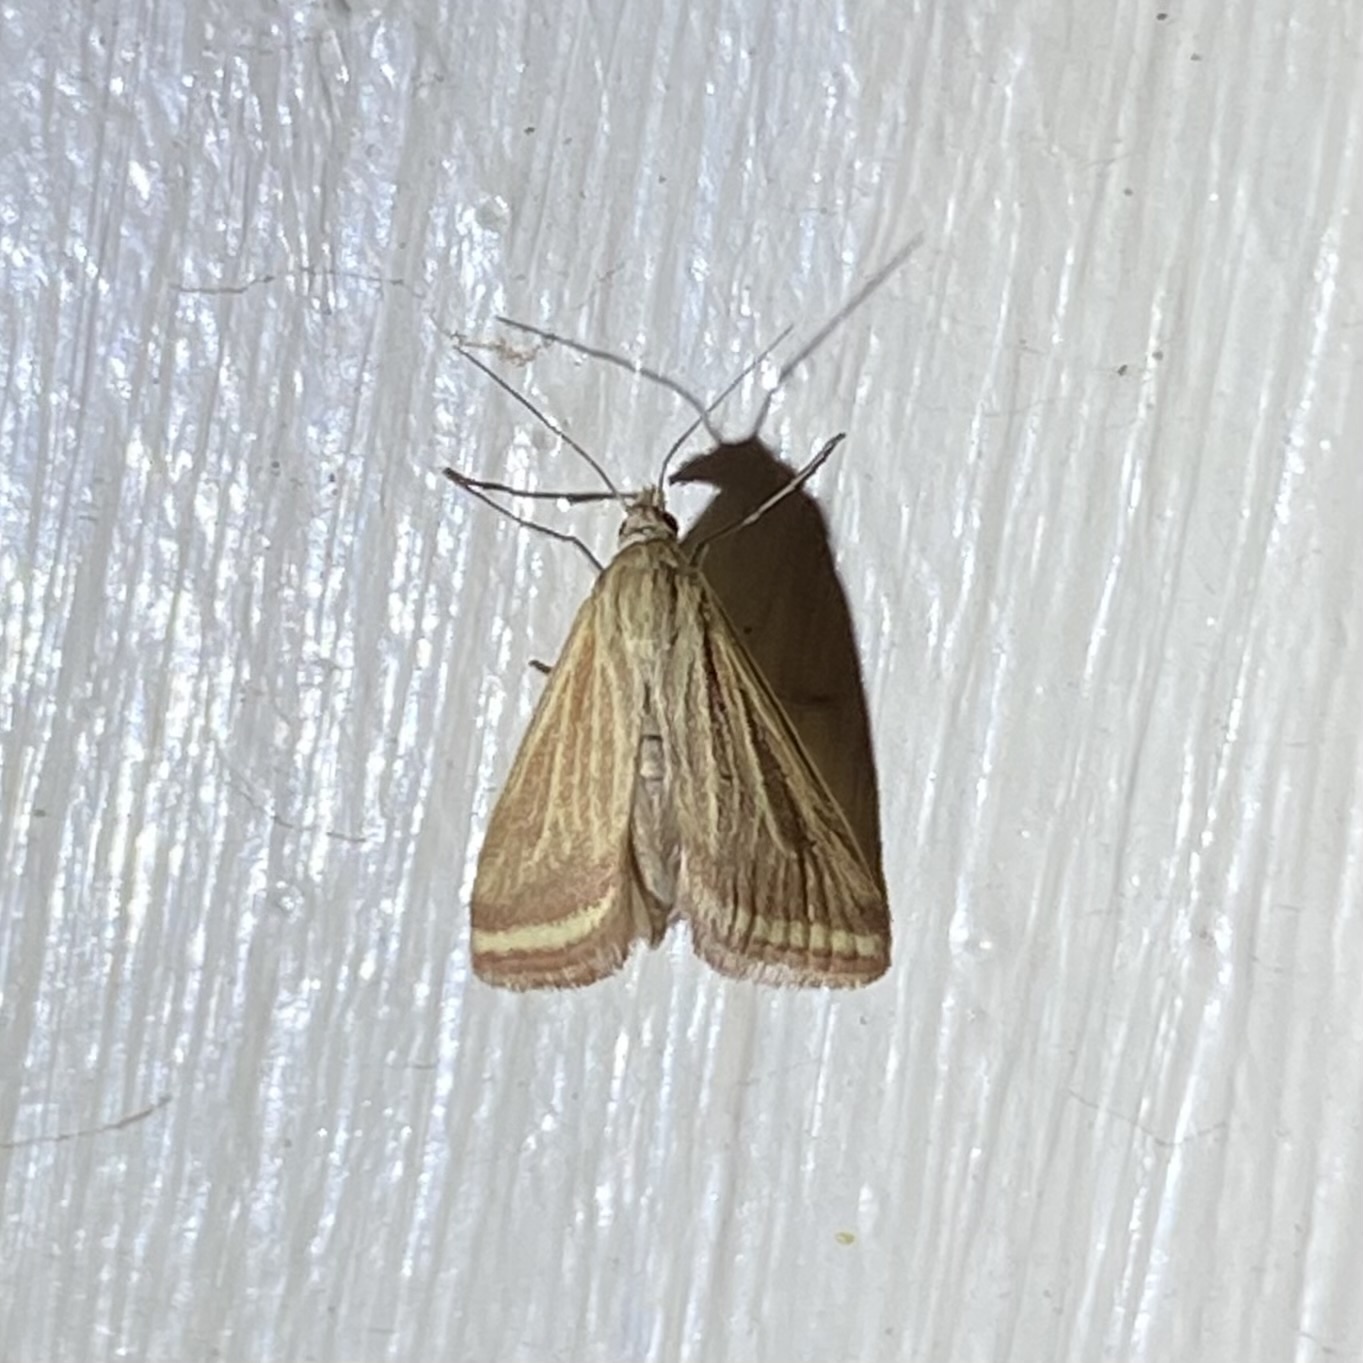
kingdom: Animalia
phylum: Arthropoda
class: Insecta
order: Lepidoptera
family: Crambidae
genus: Microtheoris
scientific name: Microtheoris ophionalis
